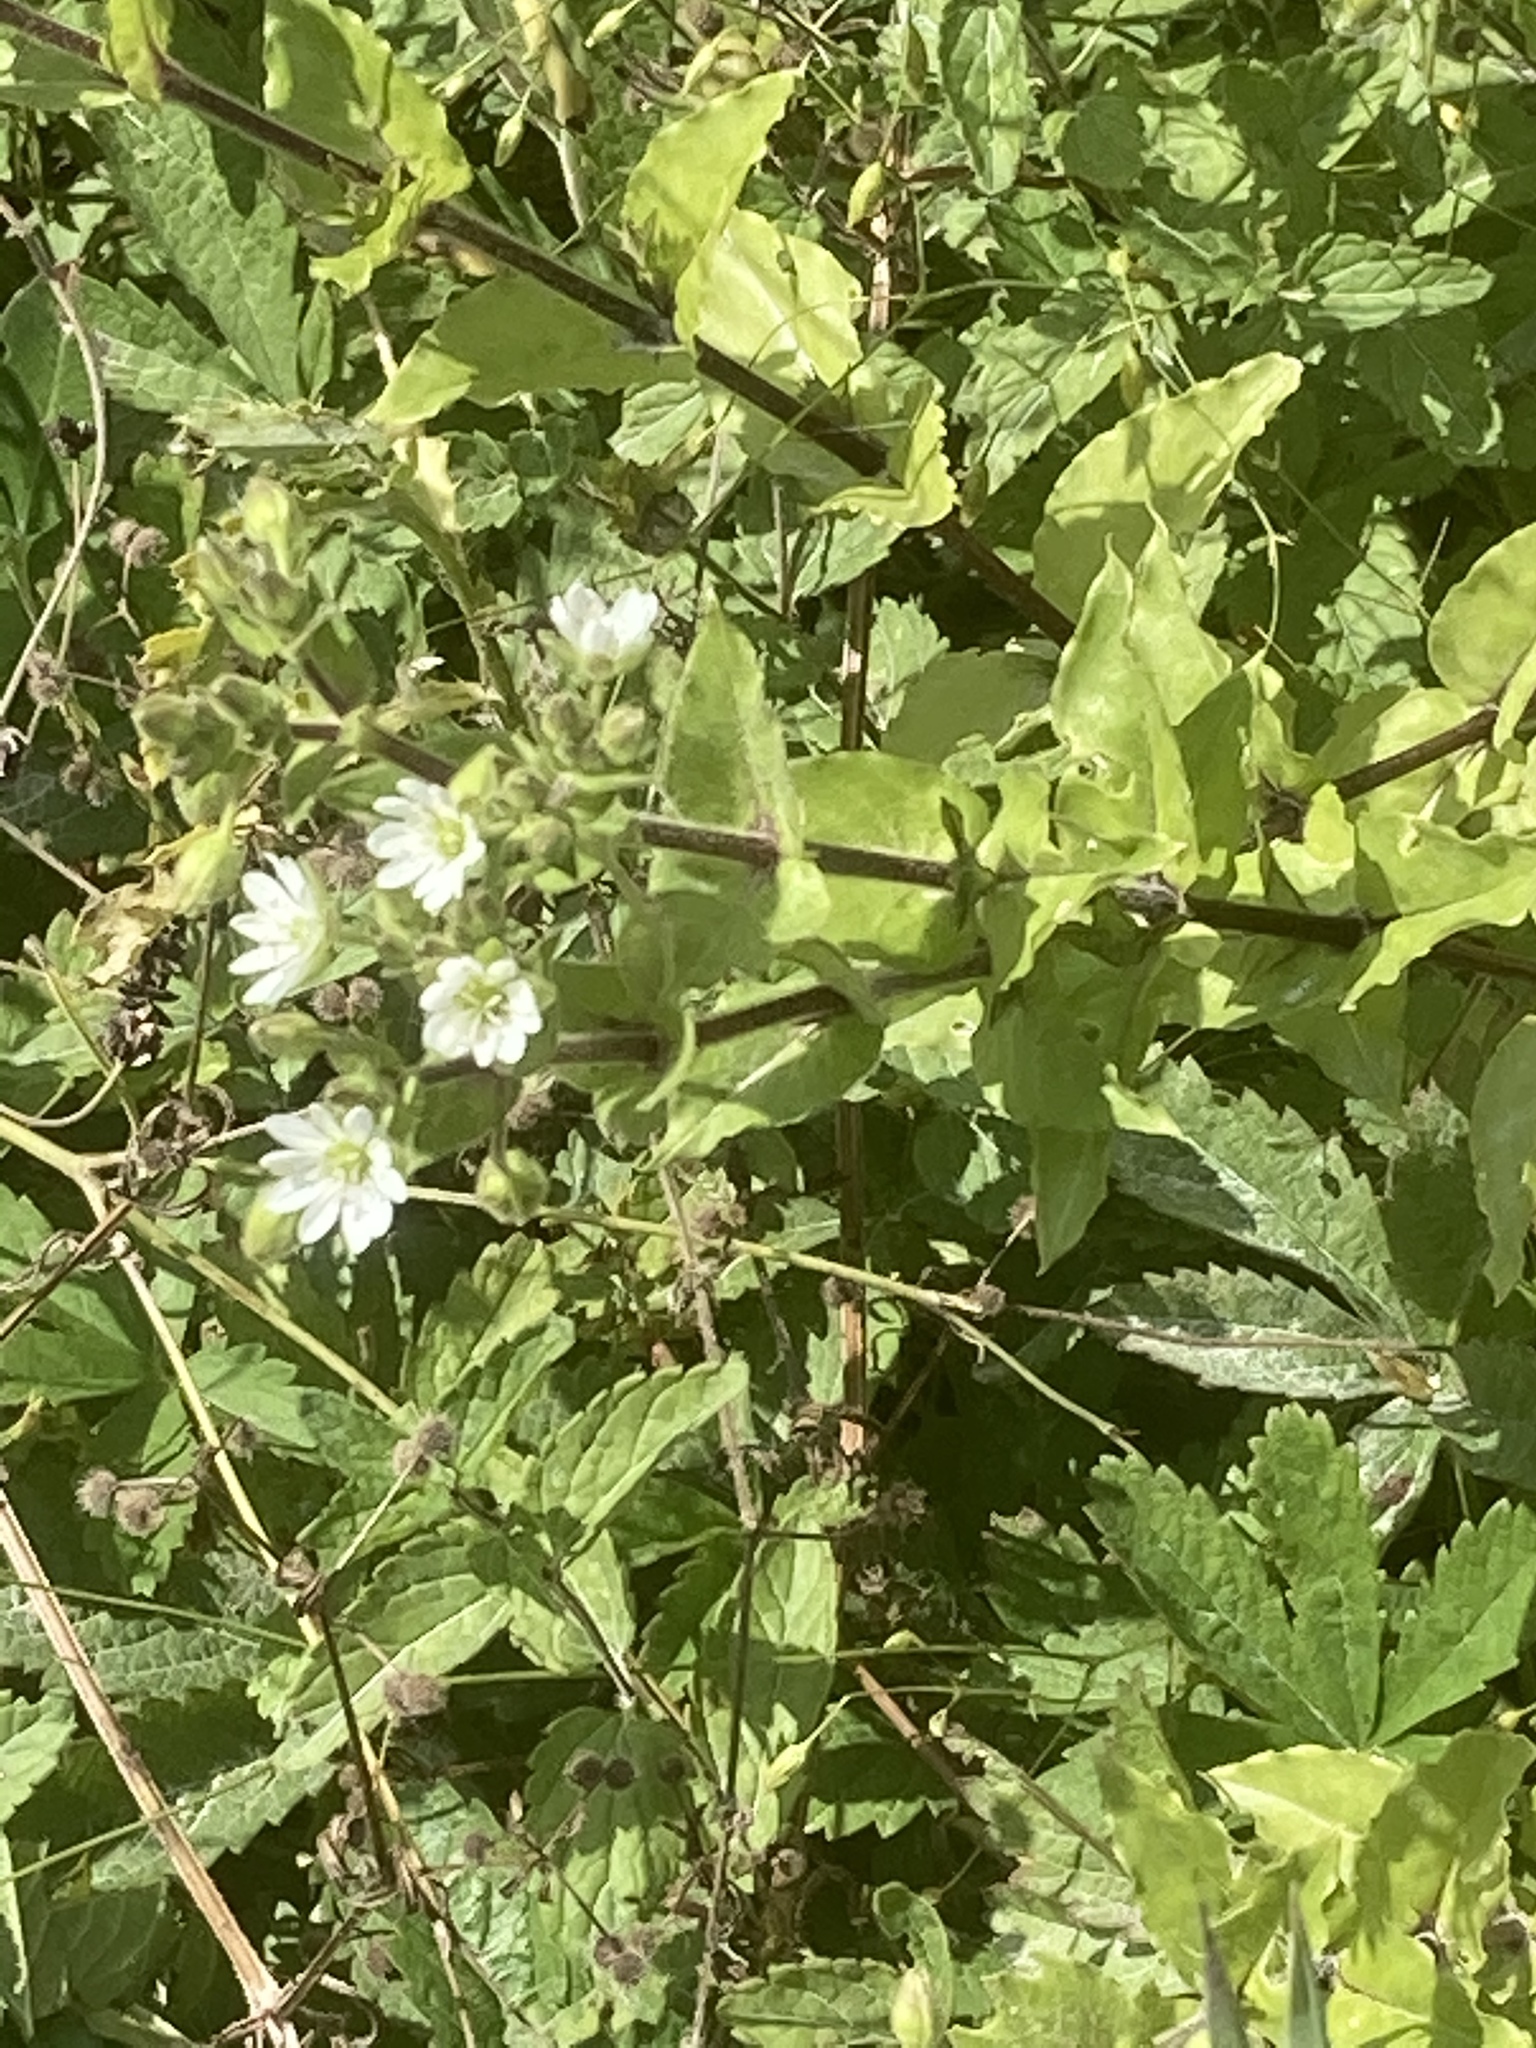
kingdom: Plantae
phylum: Tracheophyta
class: Magnoliopsida
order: Caryophyllales
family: Caryophyllaceae
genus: Stellaria
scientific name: Stellaria aquatica
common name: Water chickweed
